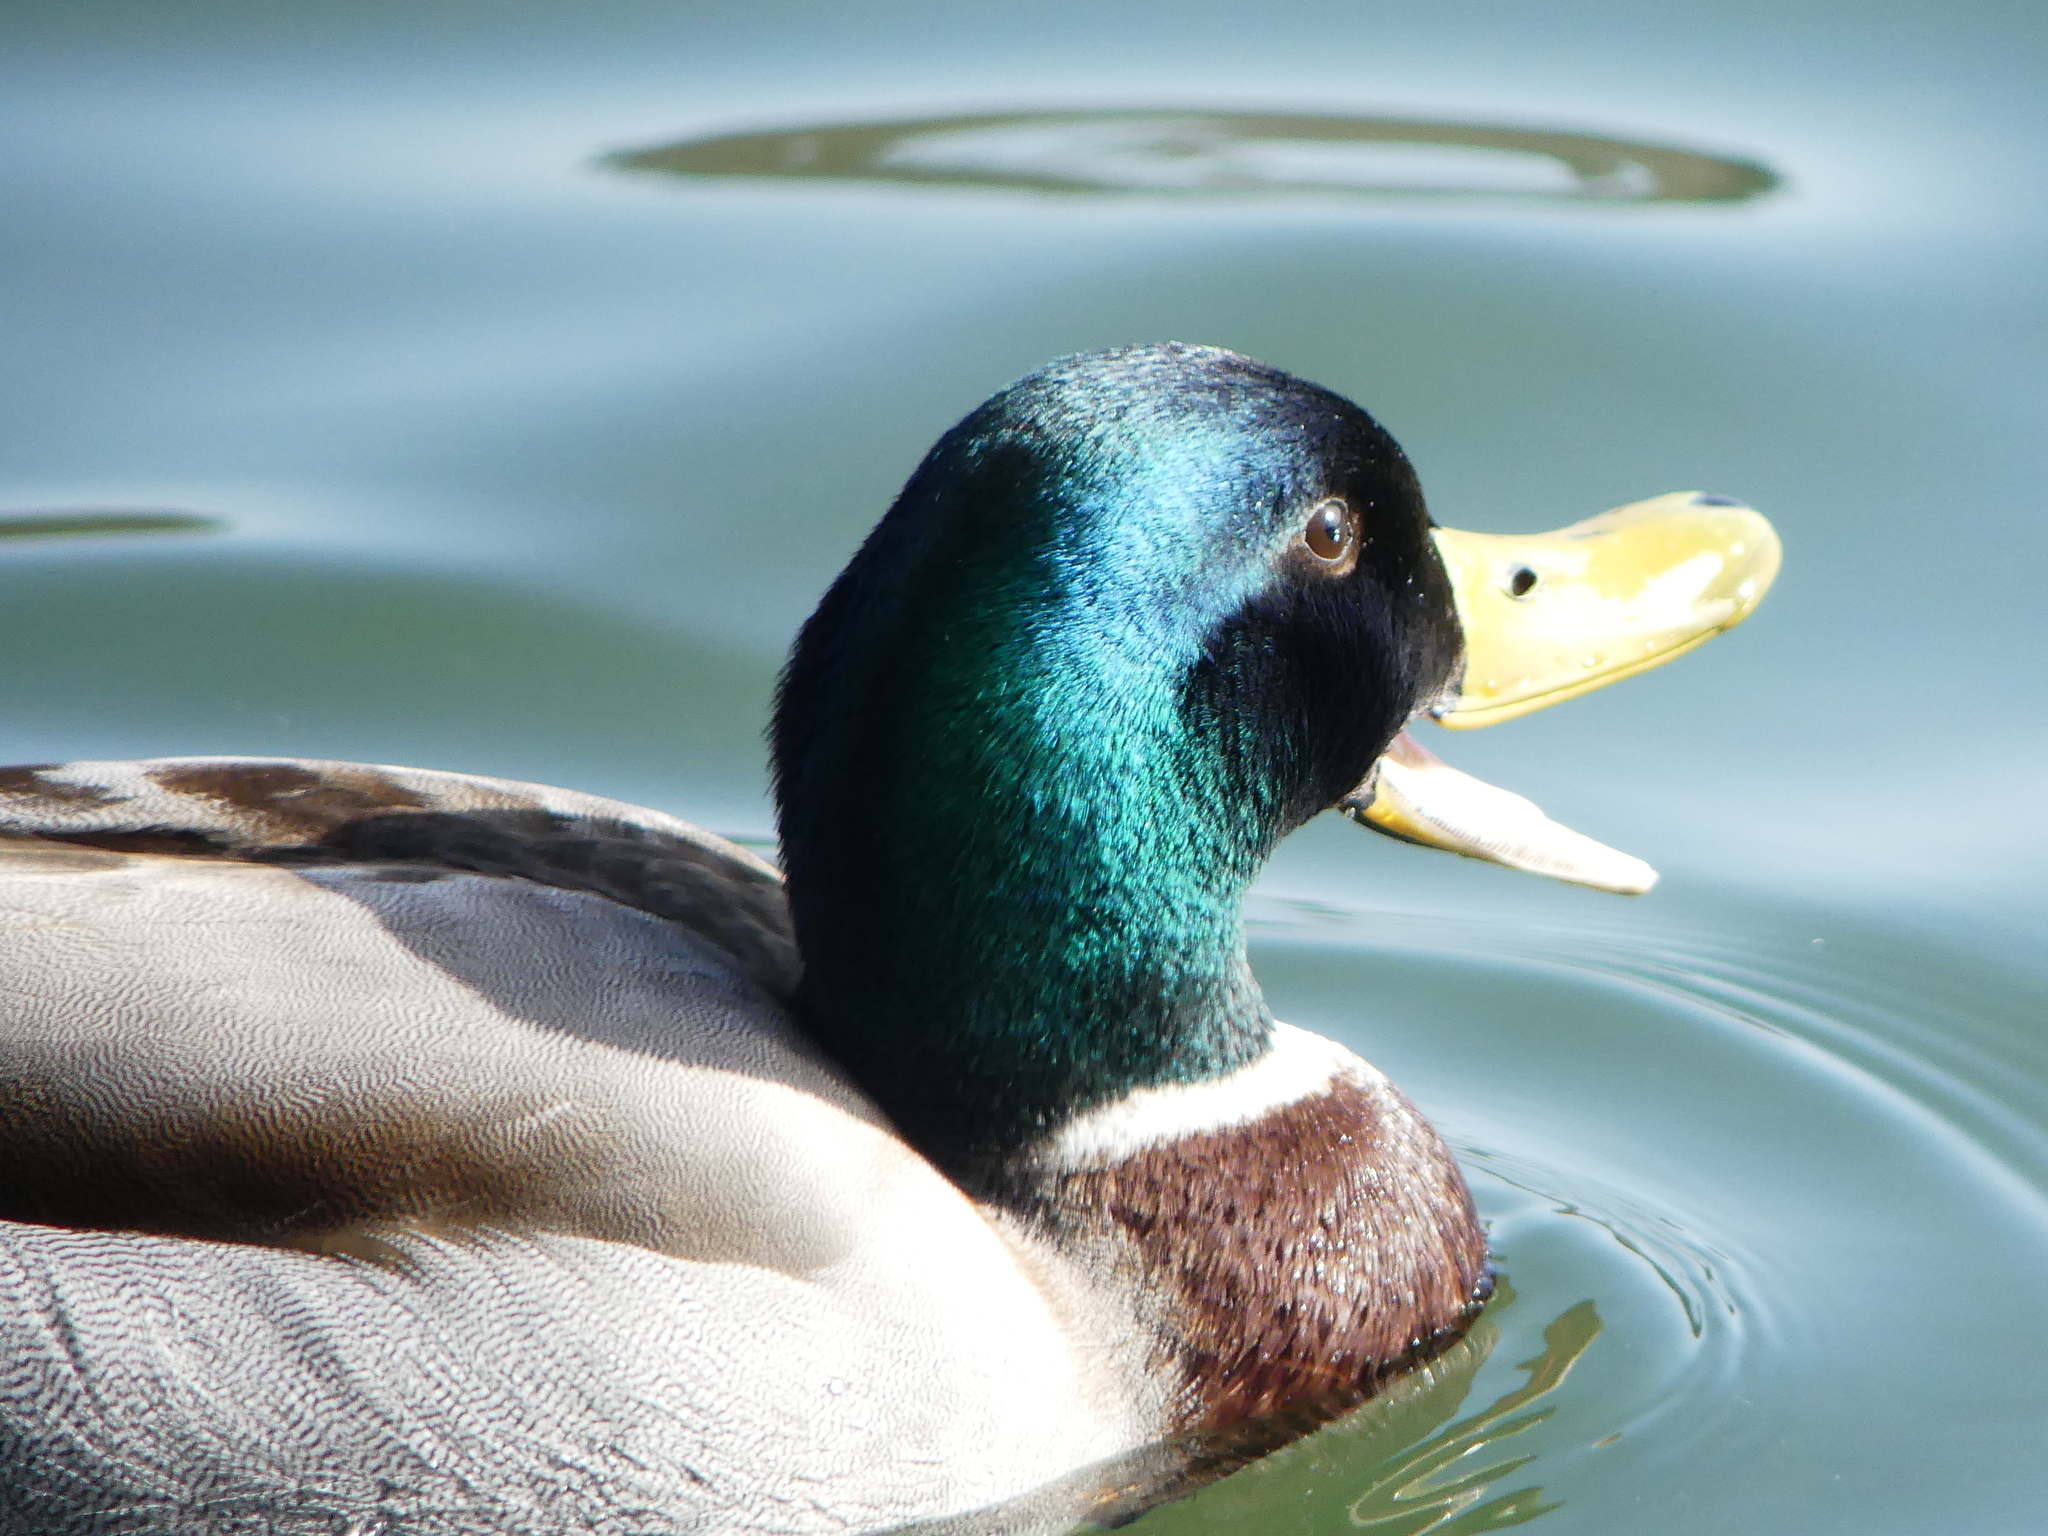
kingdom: Animalia
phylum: Chordata
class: Aves
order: Anseriformes
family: Anatidae
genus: Anas
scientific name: Anas platyrhynchos
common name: Mallard
